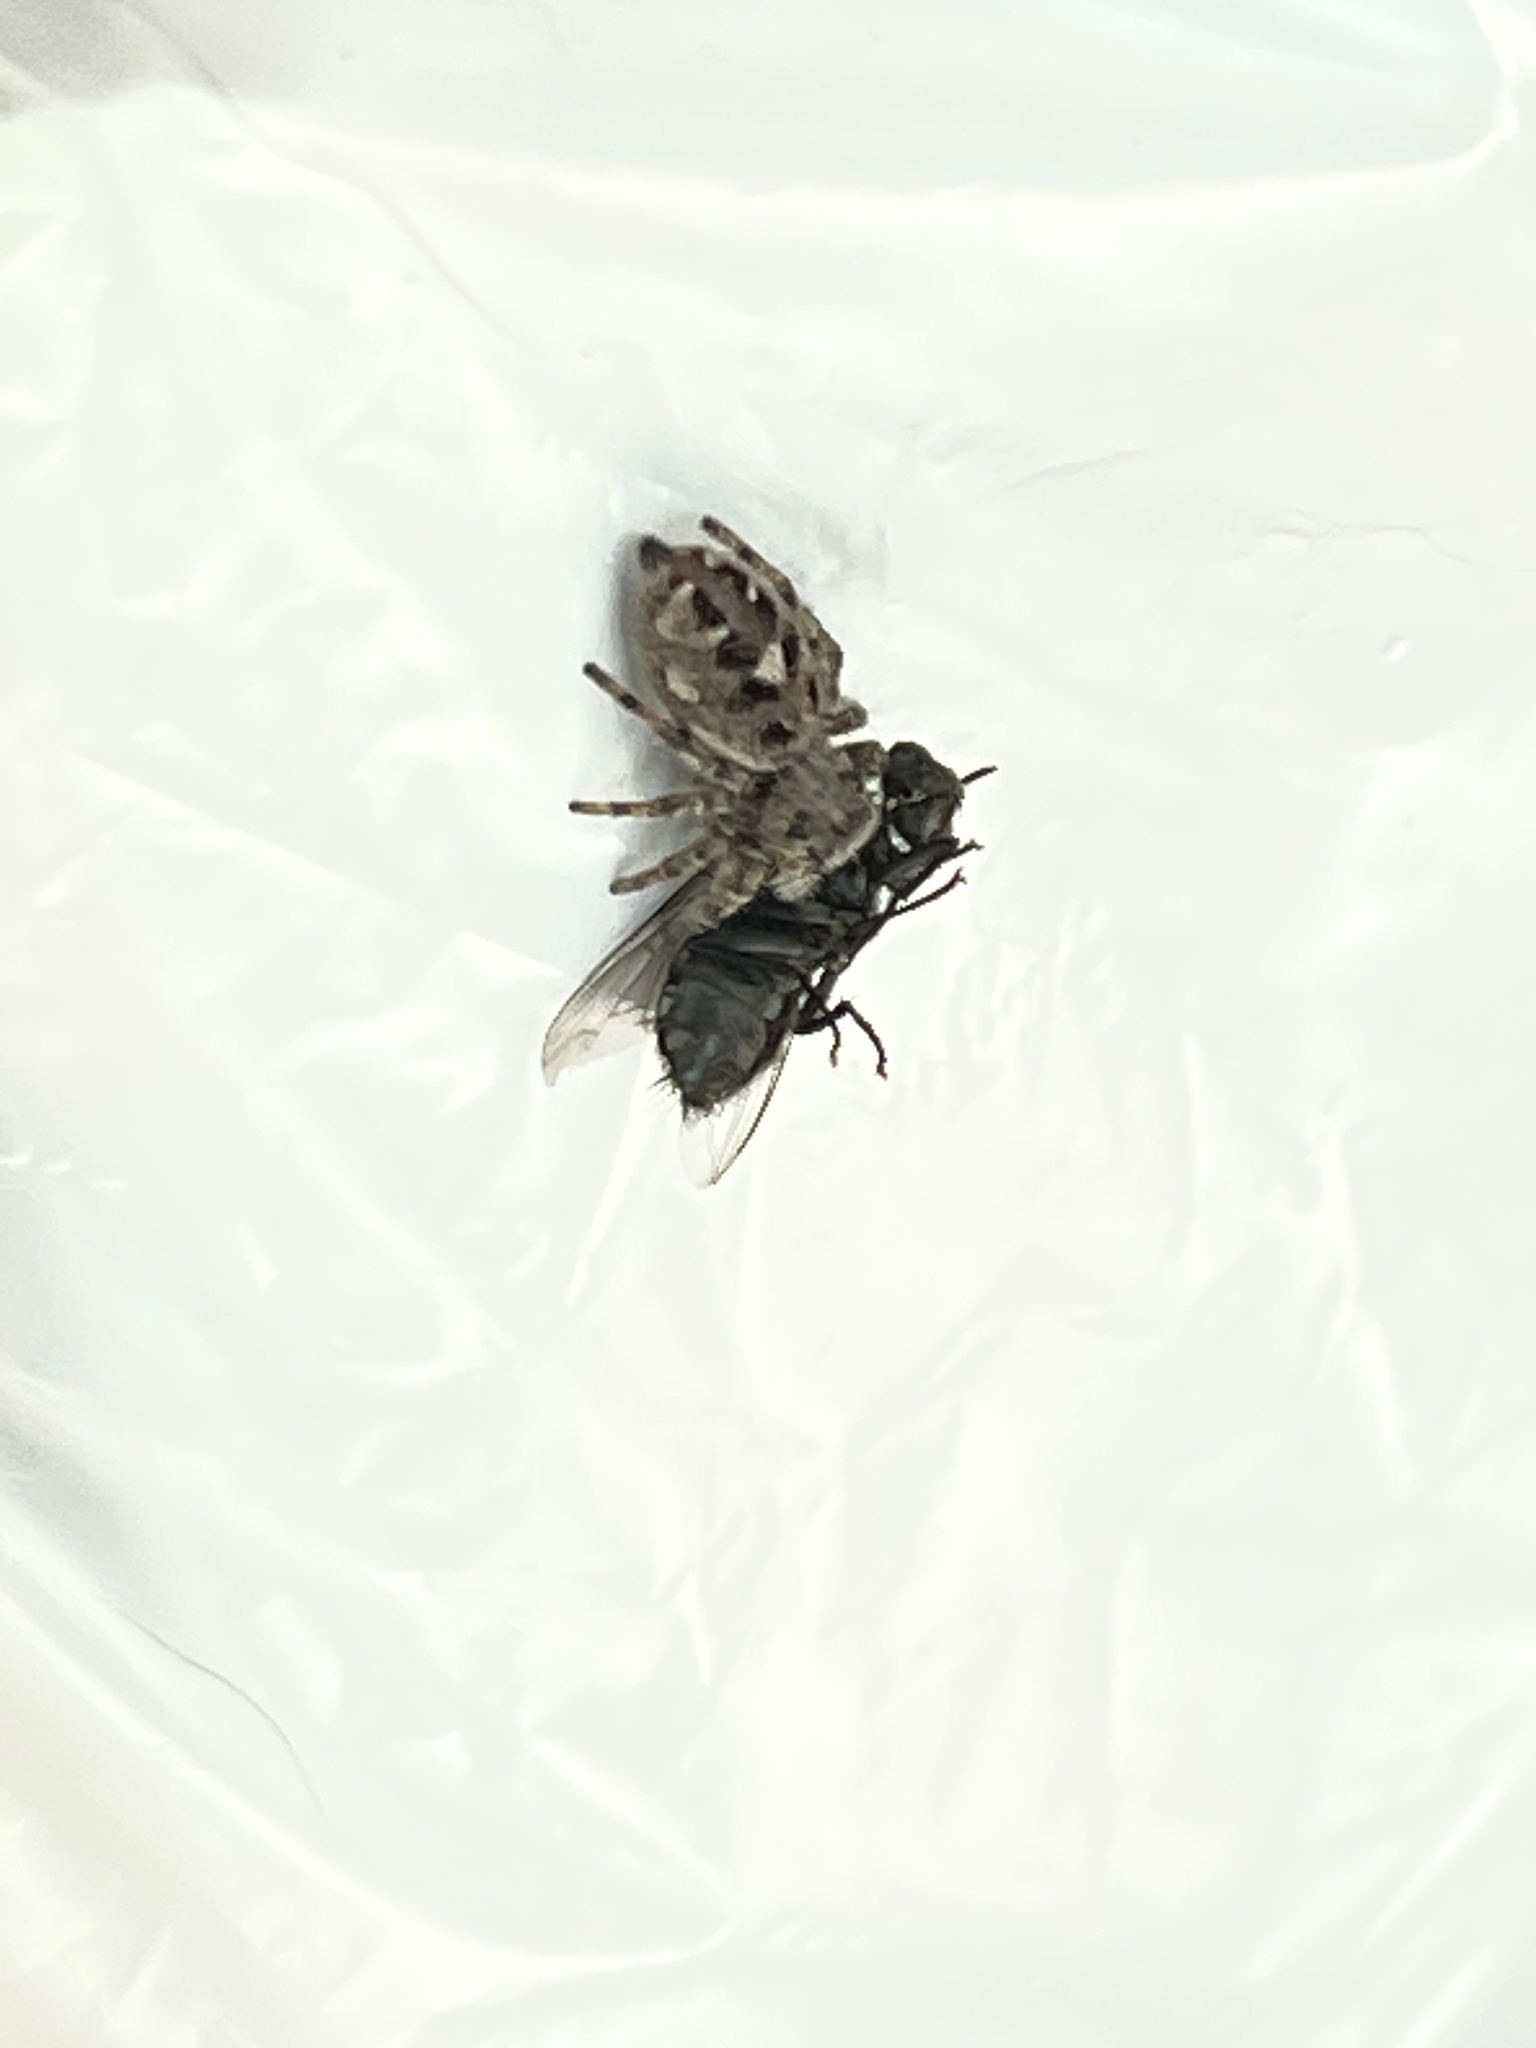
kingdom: Animalia
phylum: Arthropoda
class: Arachnida
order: Araneae
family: Salticidae
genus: Phidippus
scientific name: Phidippus putnami
